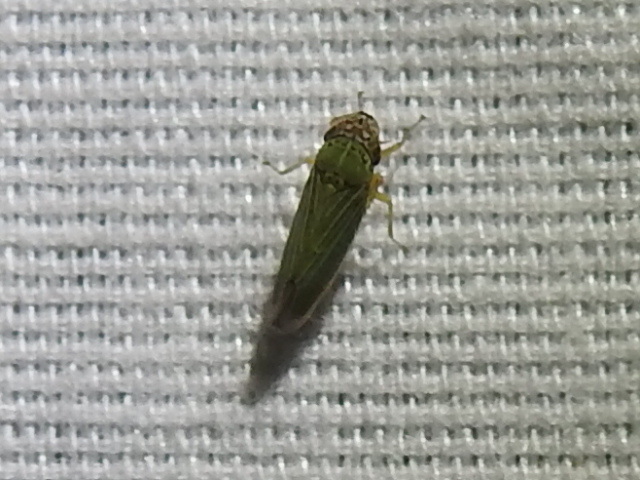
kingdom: Animalia
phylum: Arthropoda
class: Insecta
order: Hemiptera
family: Cicadellidae
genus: Xyphon
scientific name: Xyphon reticulatum
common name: Planthopper
